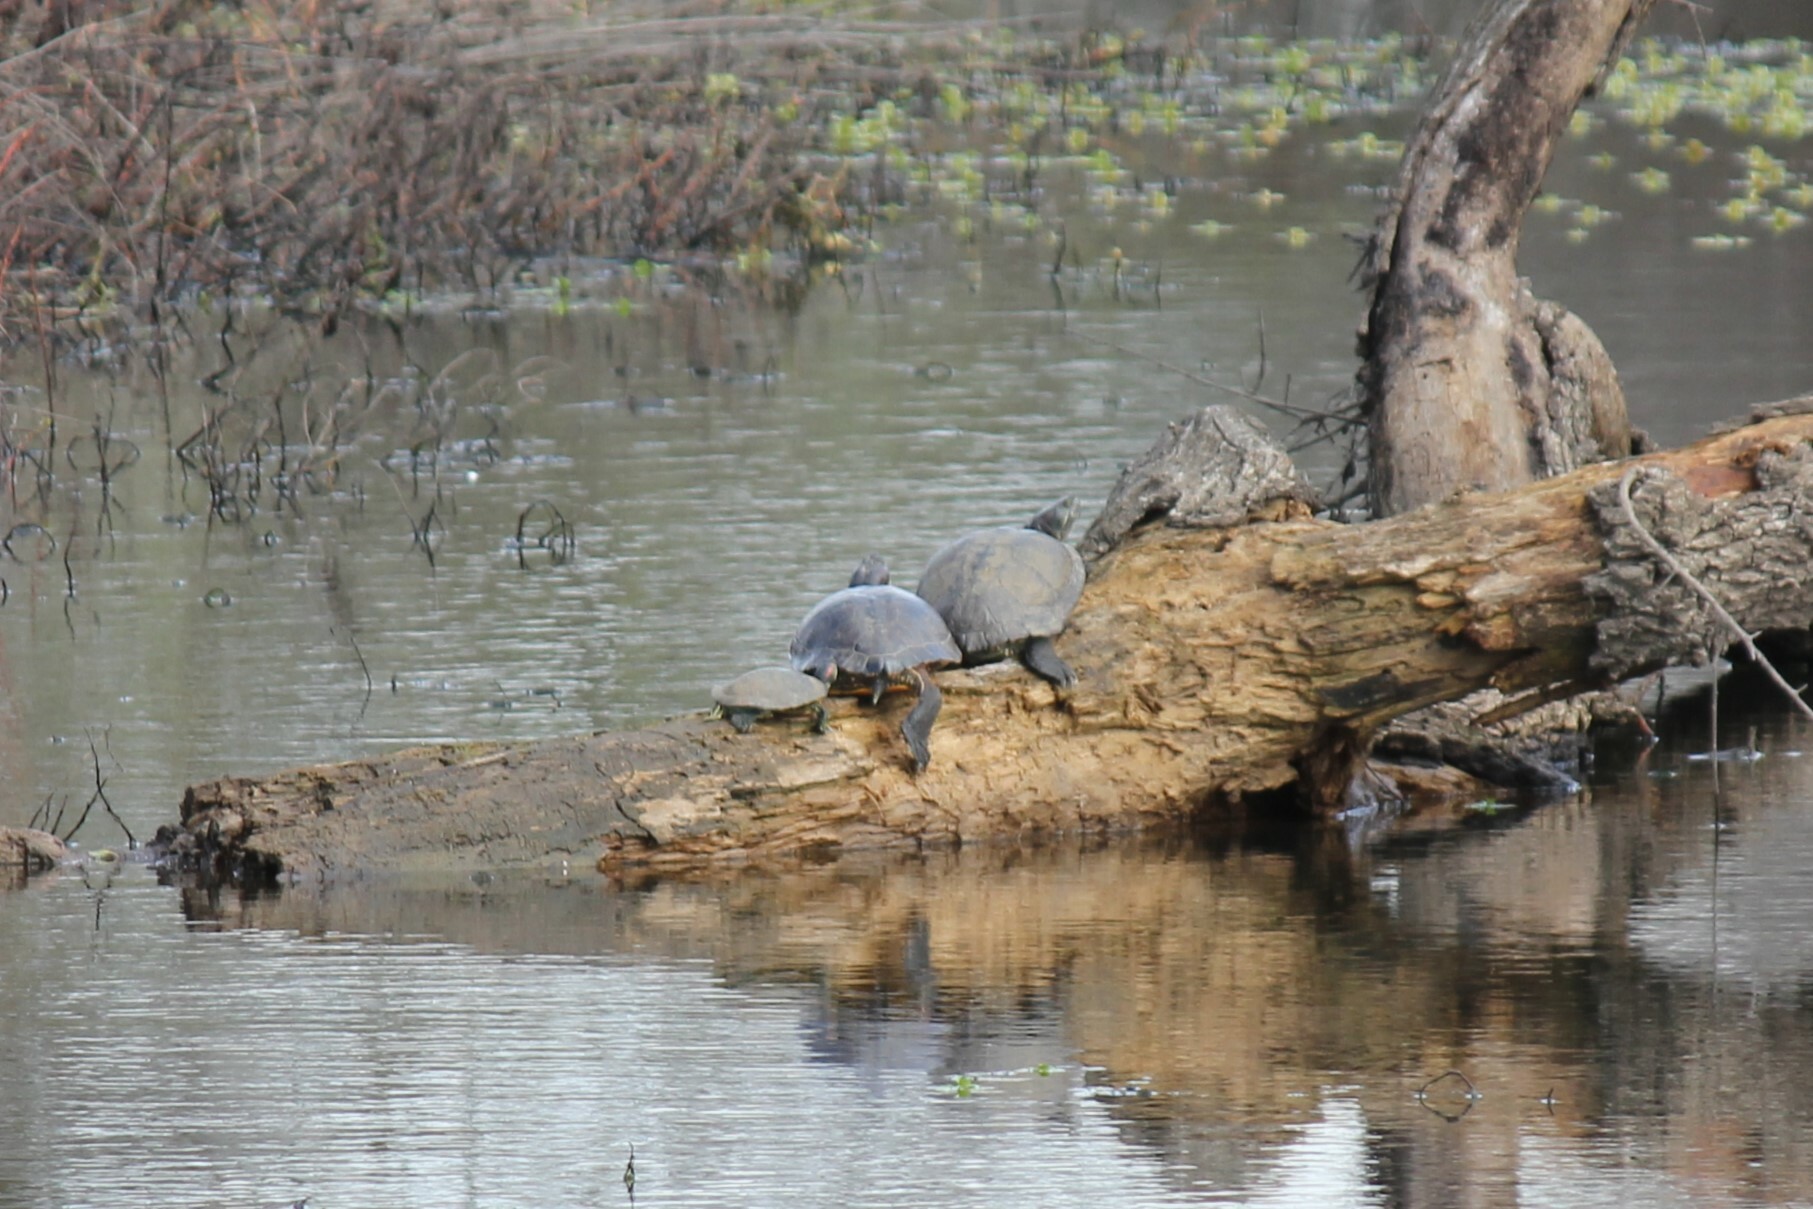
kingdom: Animalia
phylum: Chordata
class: Testudines
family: Emydidae
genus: Trachemys
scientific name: Trachemys scripta
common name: Slider
